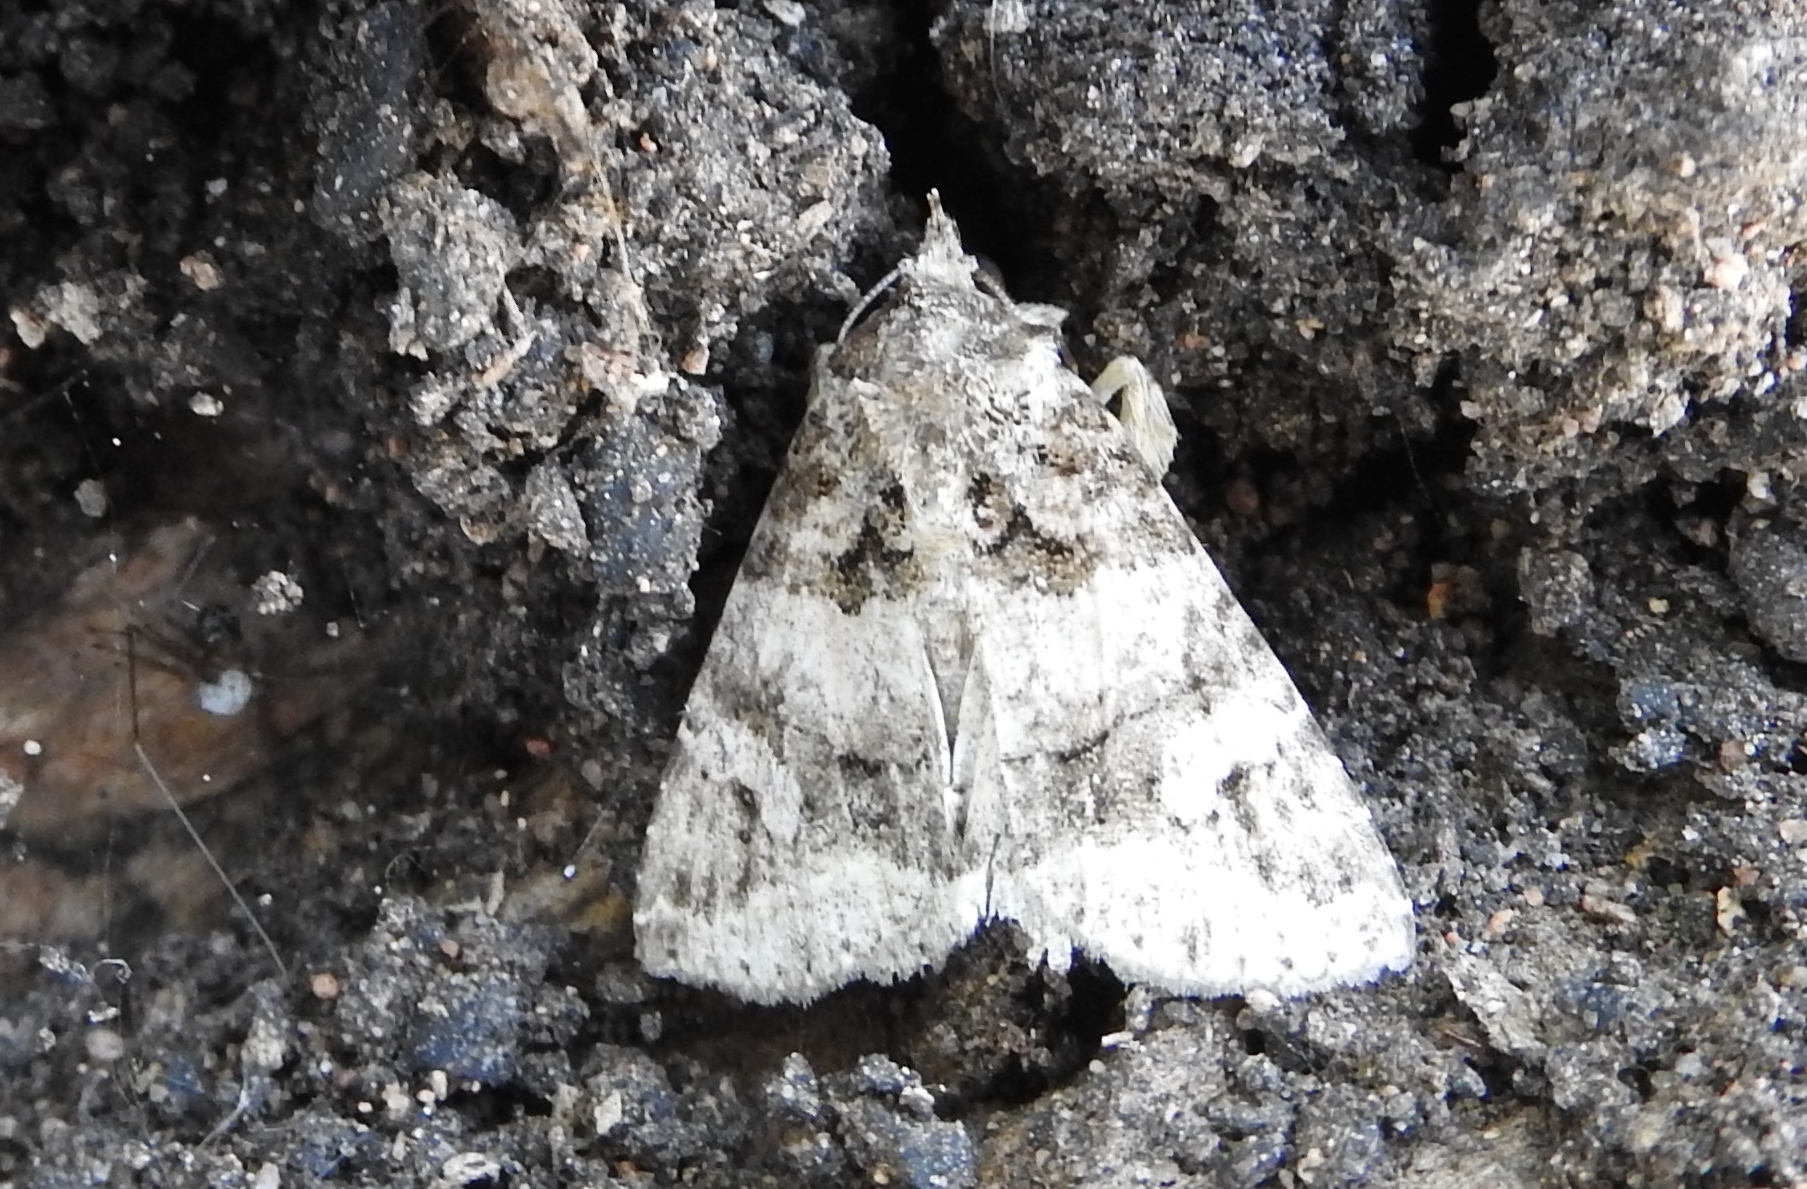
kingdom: Animalia
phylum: Arthropoda
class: Insecta
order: Lepidoptera
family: Erebidae
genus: Melipotis
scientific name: Melipotis
